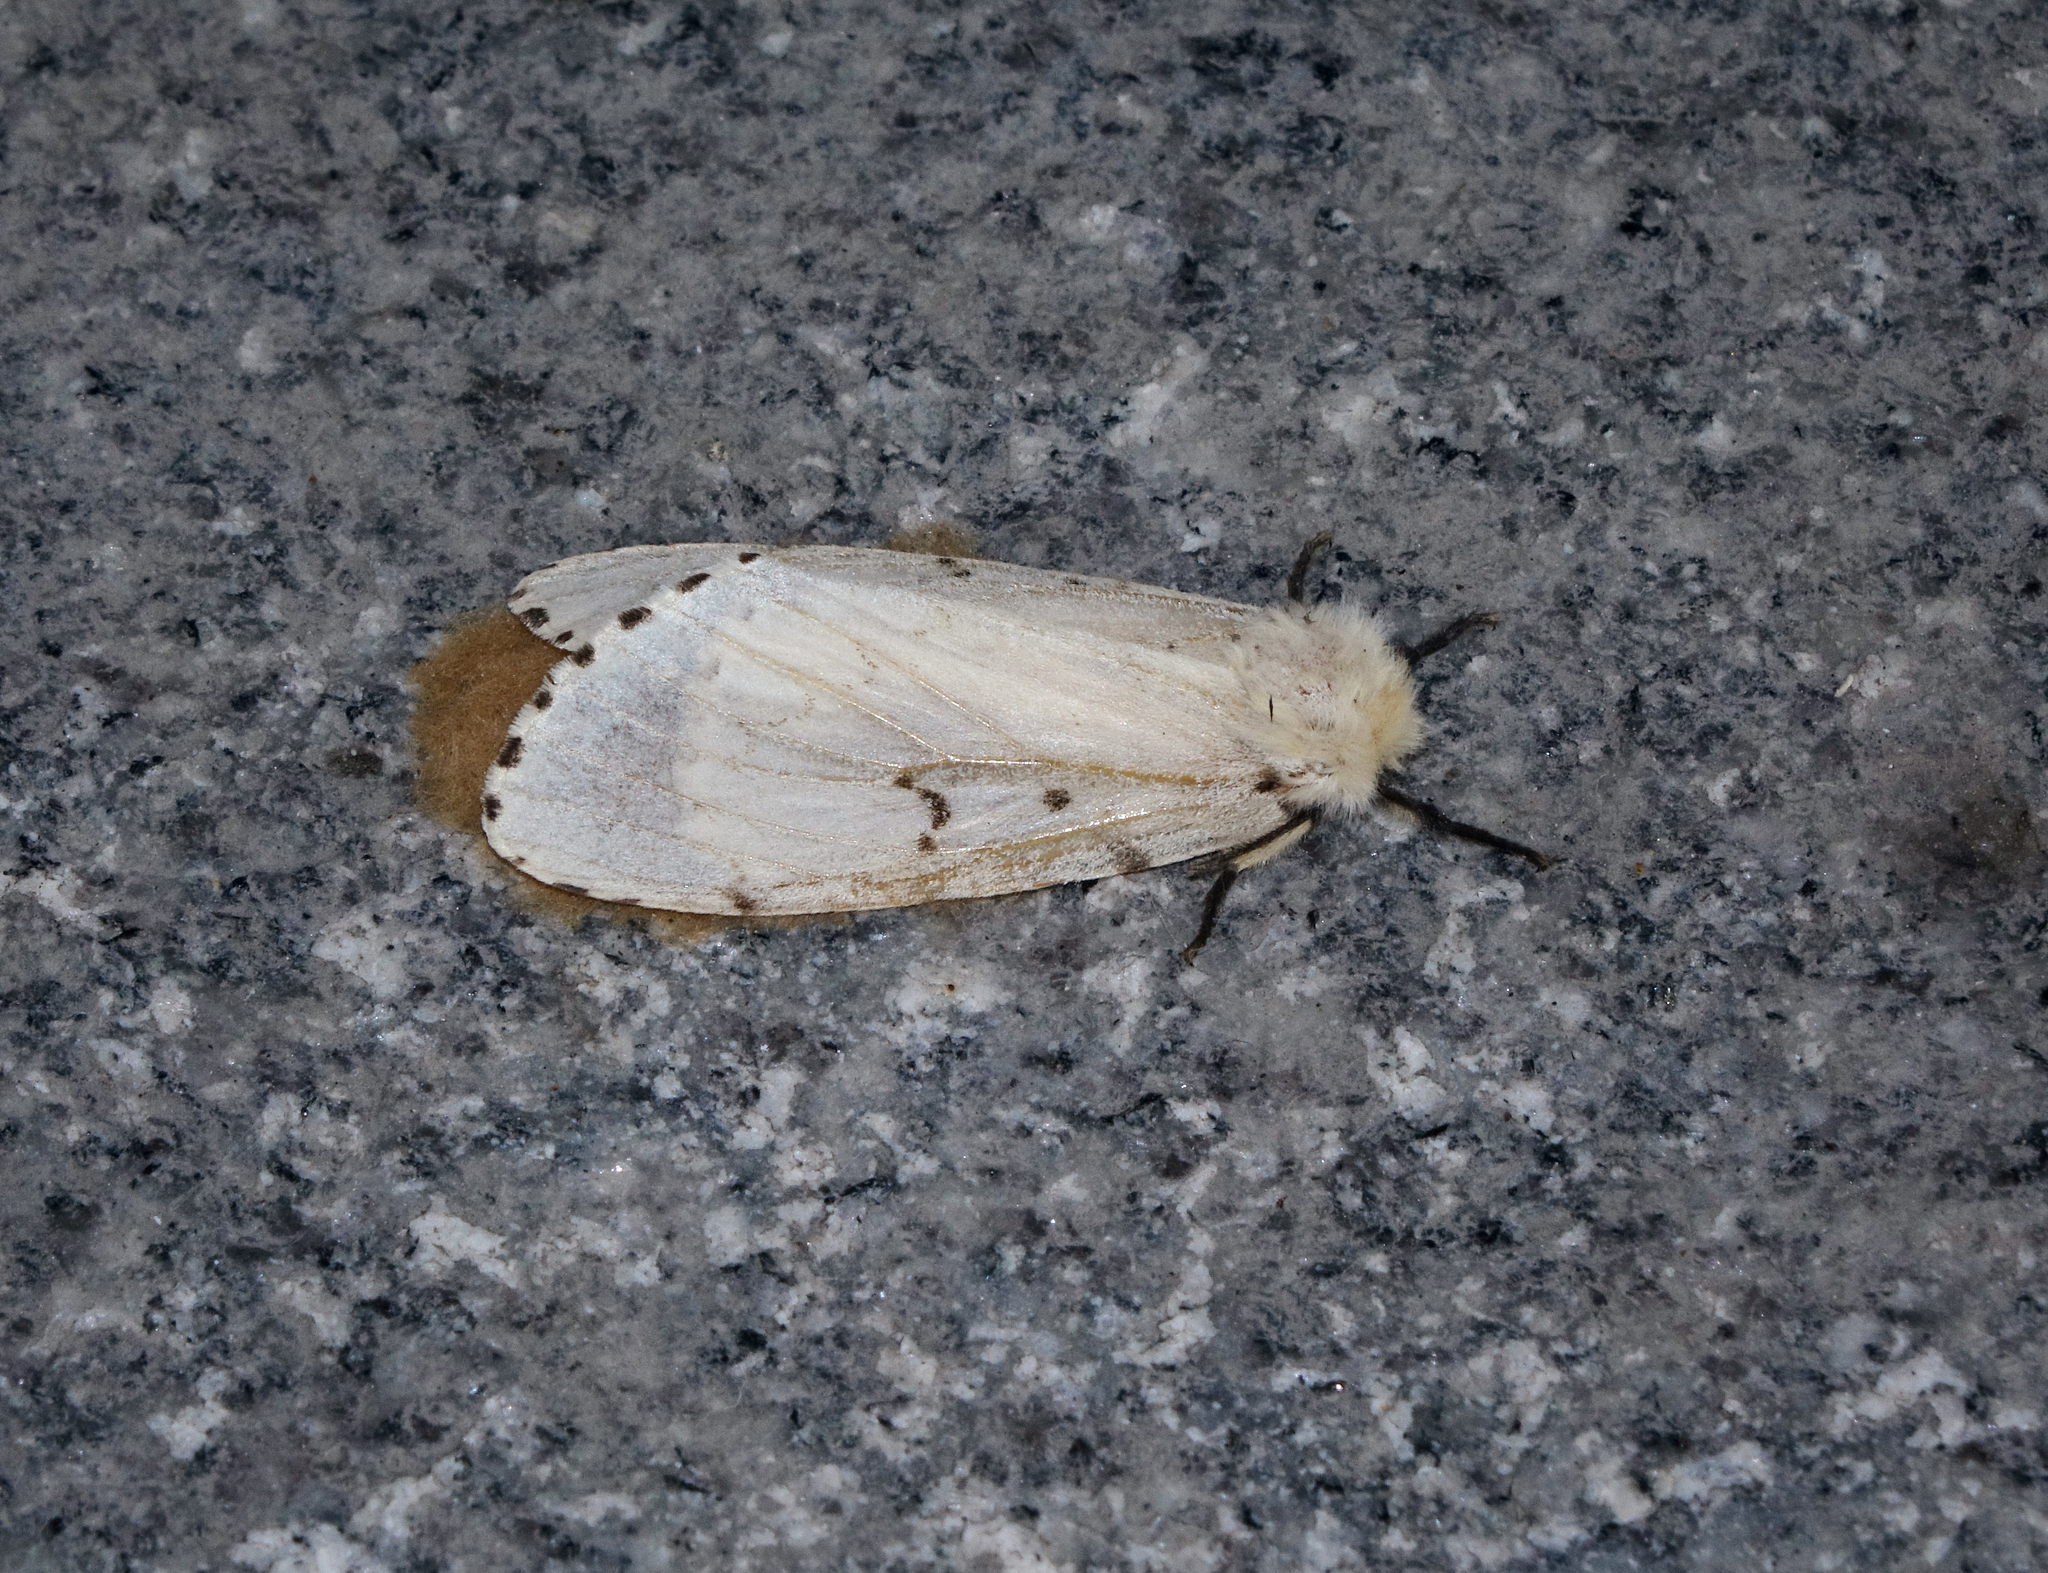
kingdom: Animalia
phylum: Arthropoda
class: Insecta
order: Lepidoptera
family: Erebidae
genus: Lymantria
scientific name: Lymantria dispar
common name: Gypsy moth
